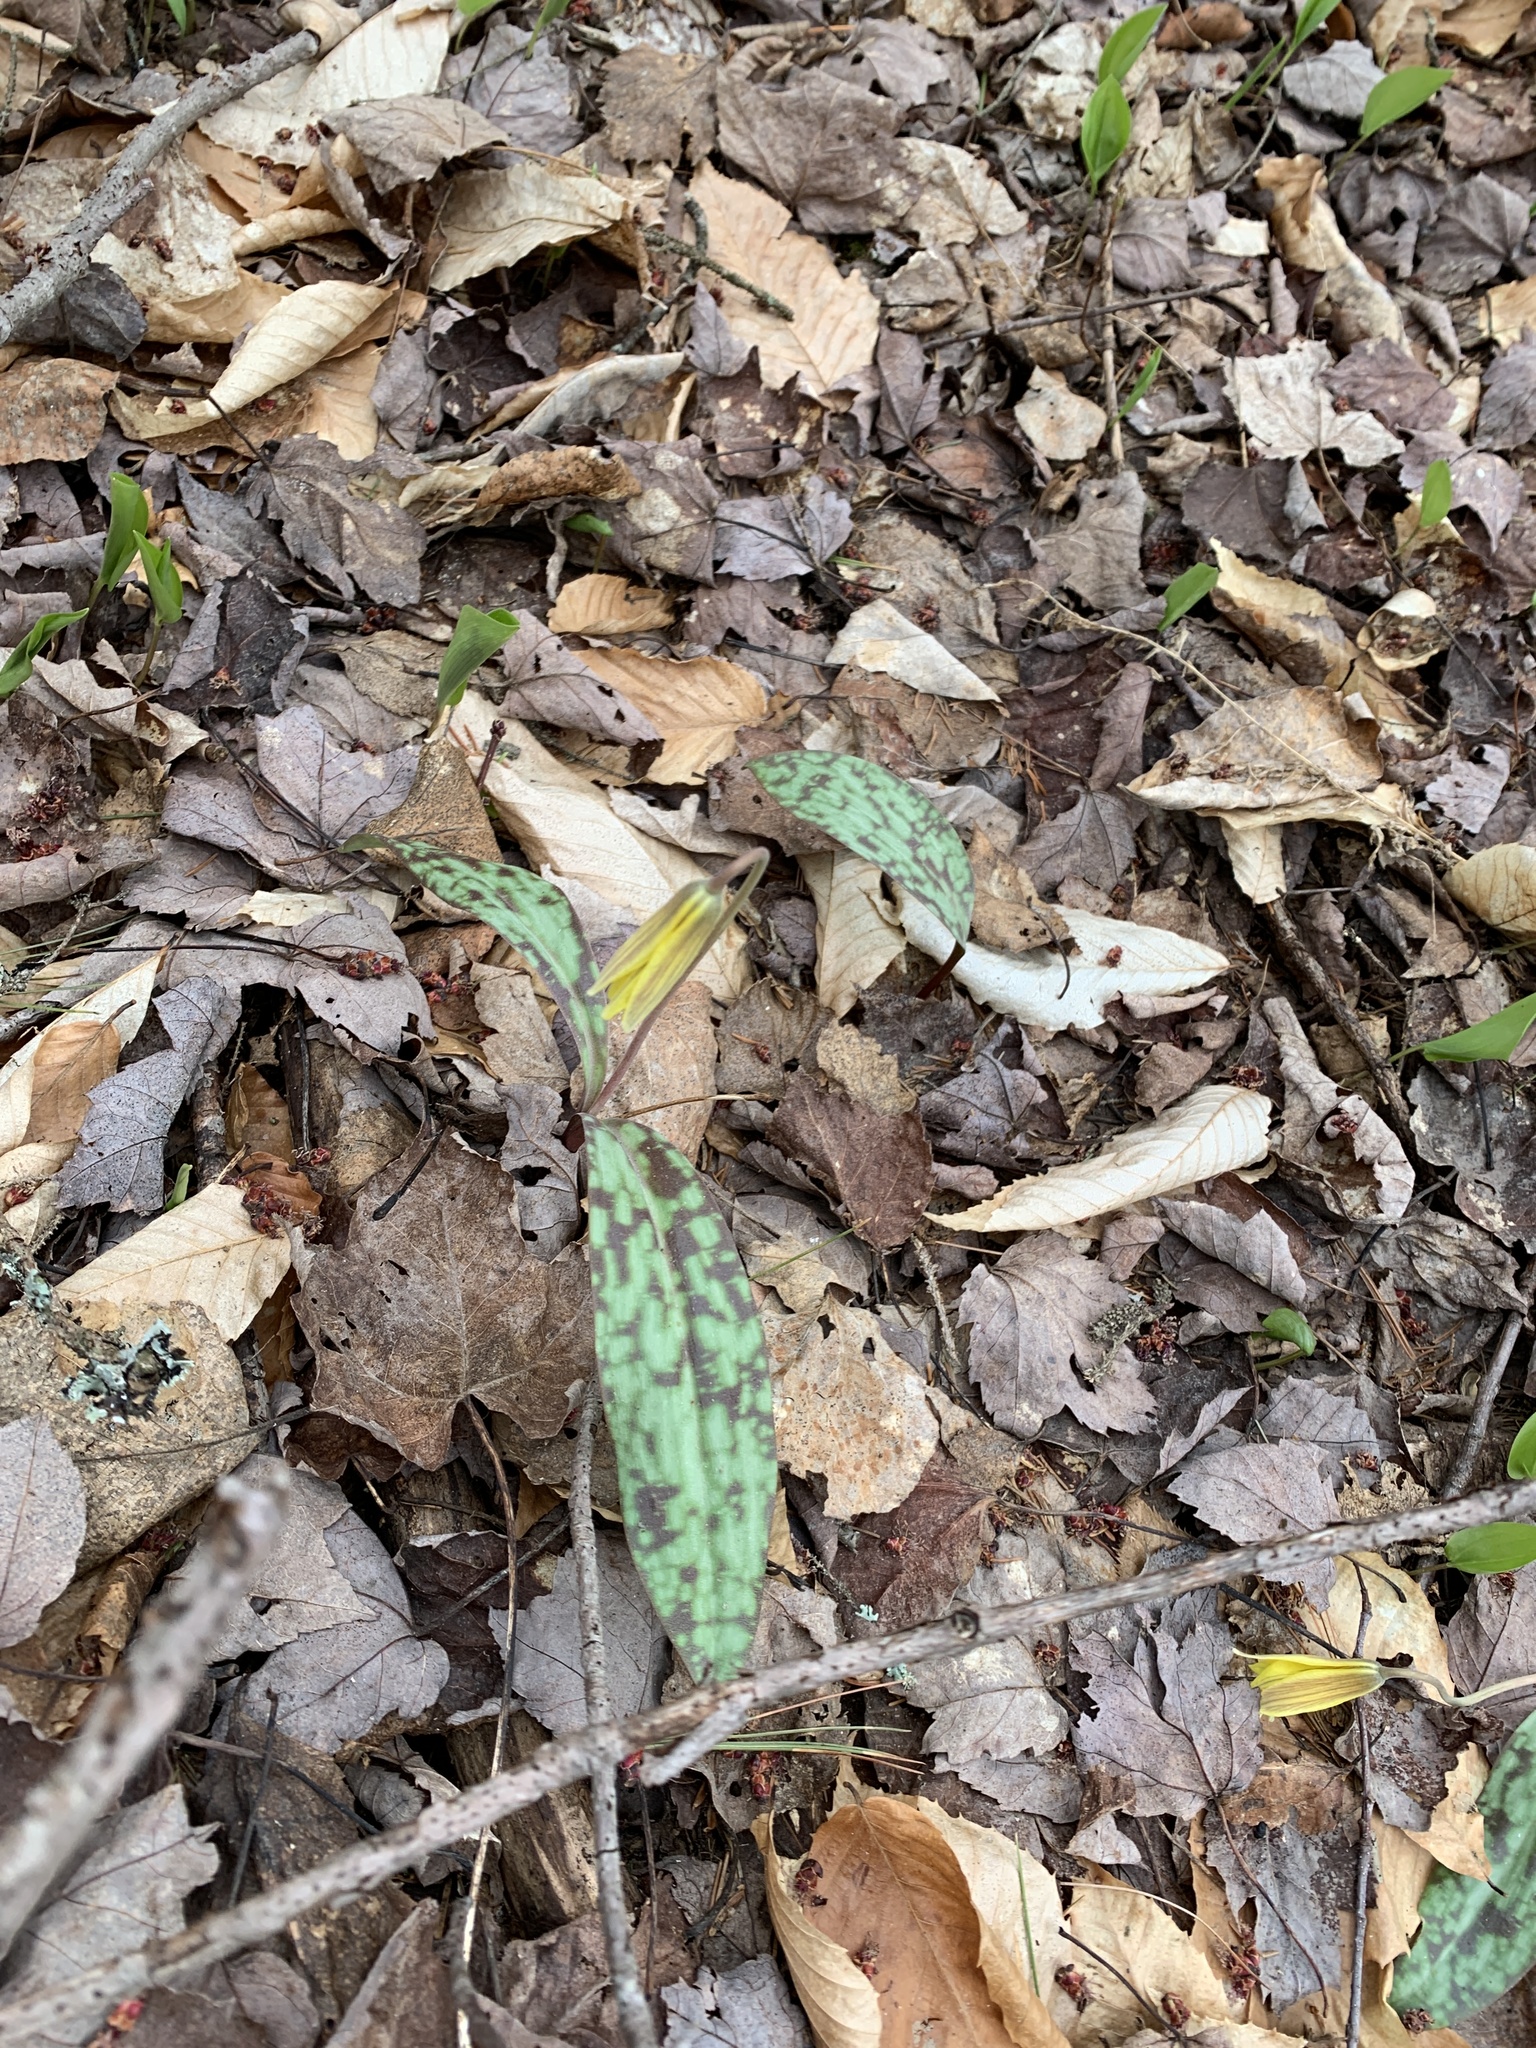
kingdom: Plantae
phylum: Tracheophyta
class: Liliopsida
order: Liliales
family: Liliaceae
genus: Erythronium
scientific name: Erythronium americanum
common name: Yellow adder's-tongue
